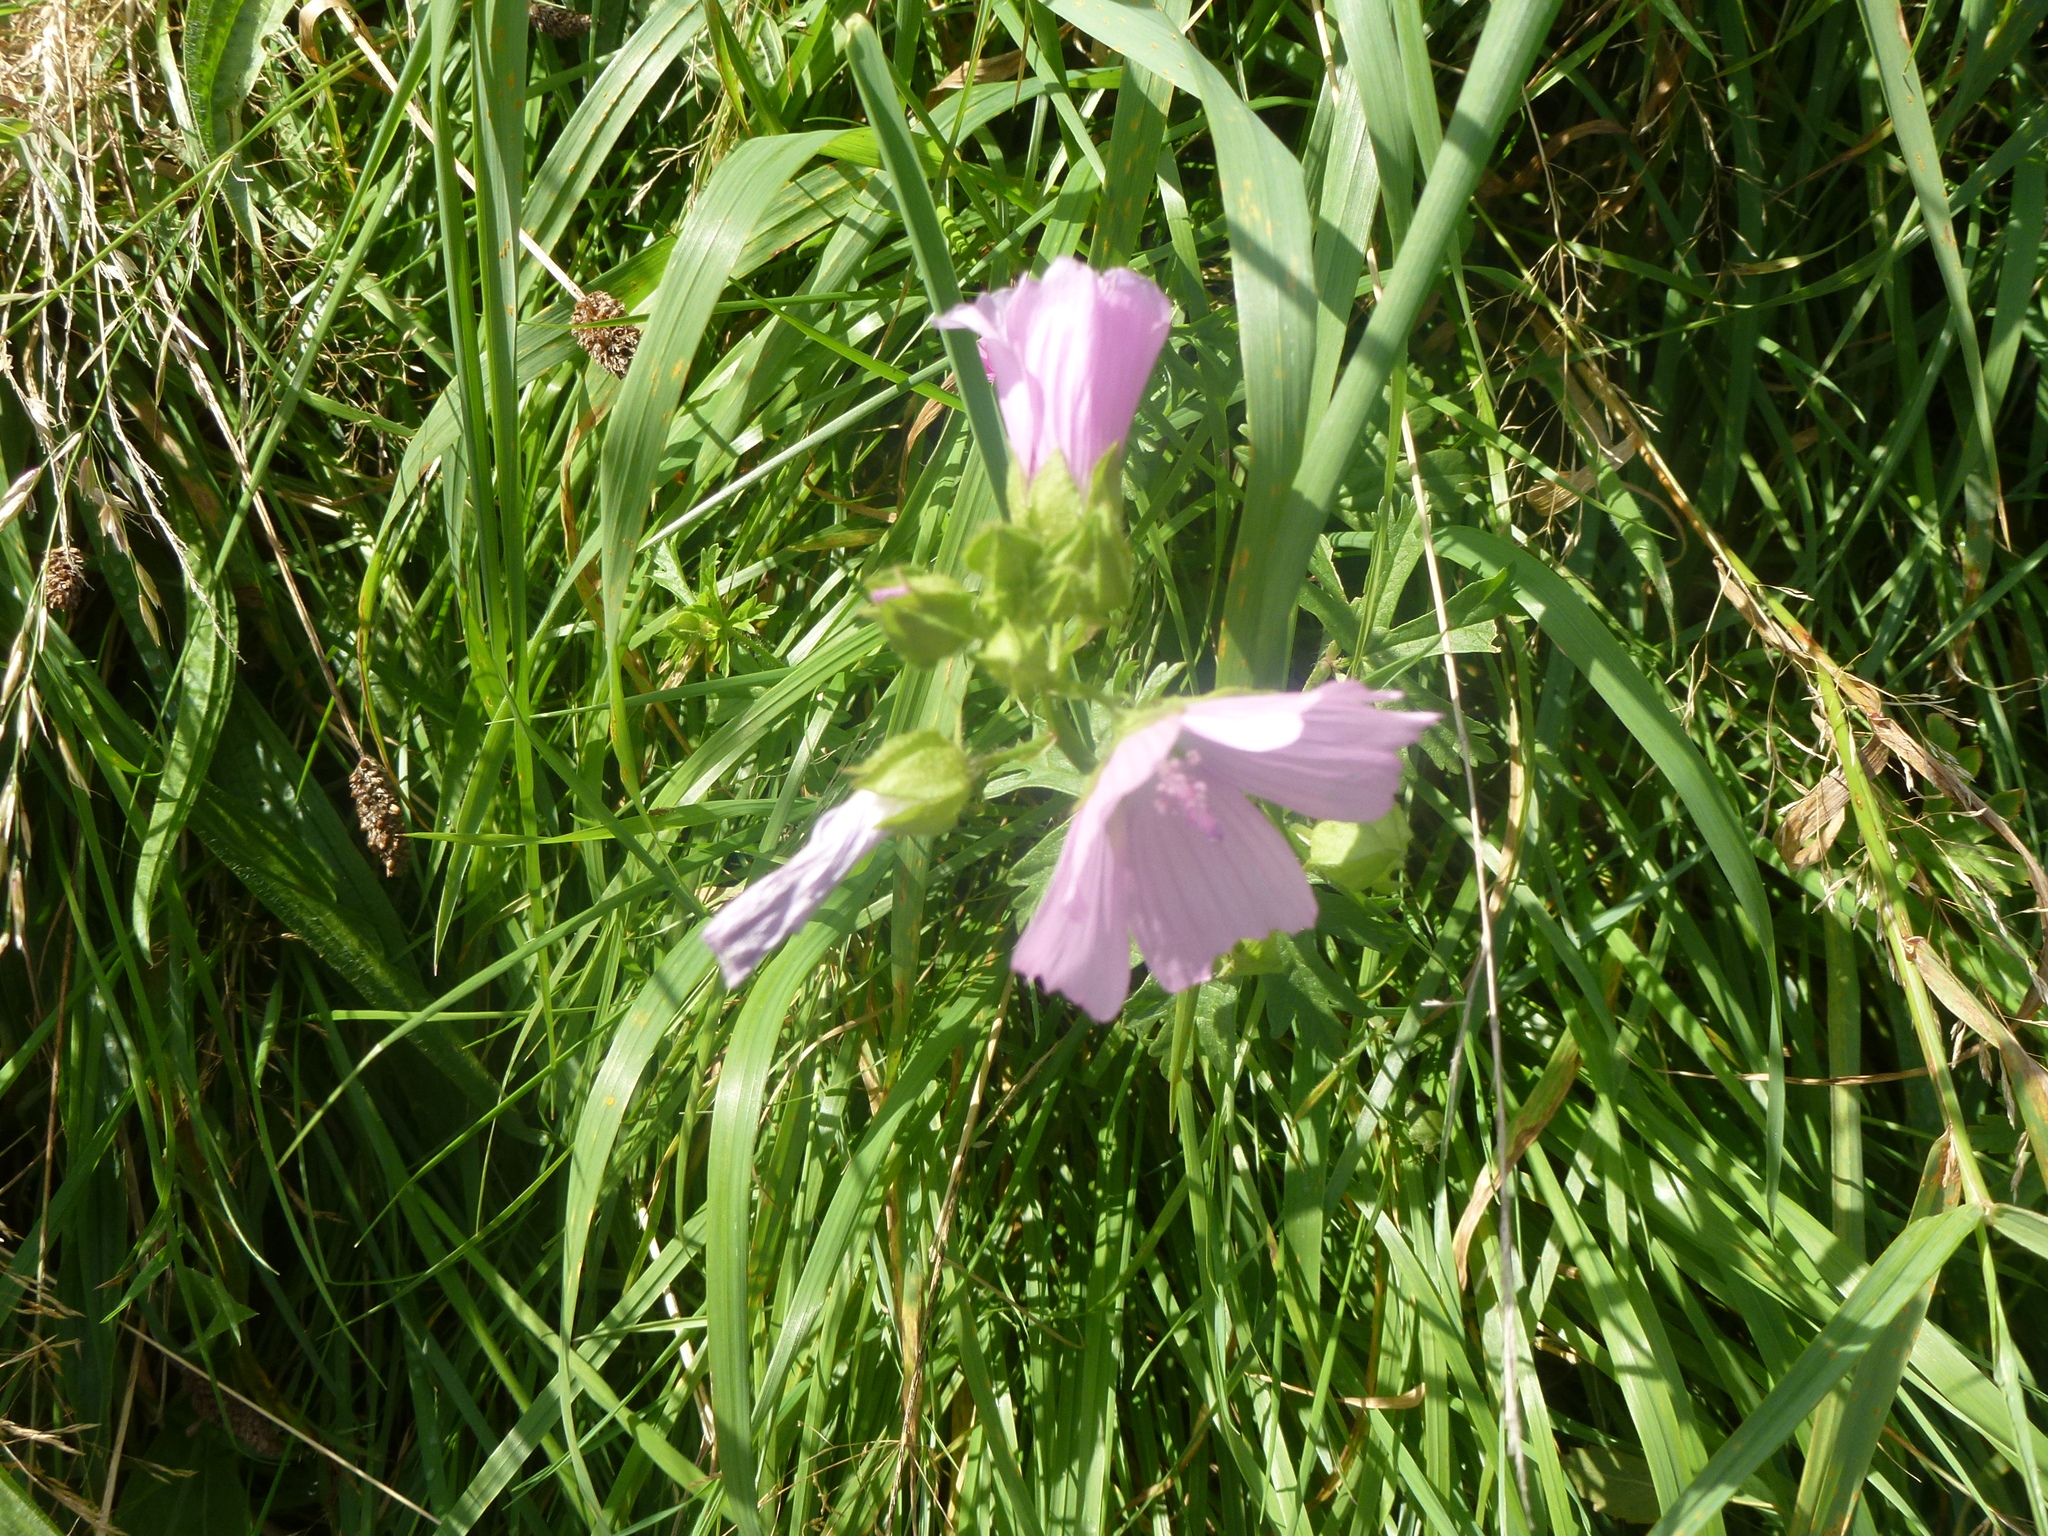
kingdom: Plantae
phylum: Tracheophyta
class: Magnoliopsida
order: Malvales
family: Malvaceae
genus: Malva
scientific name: Malva moschata
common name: Musk mallow
